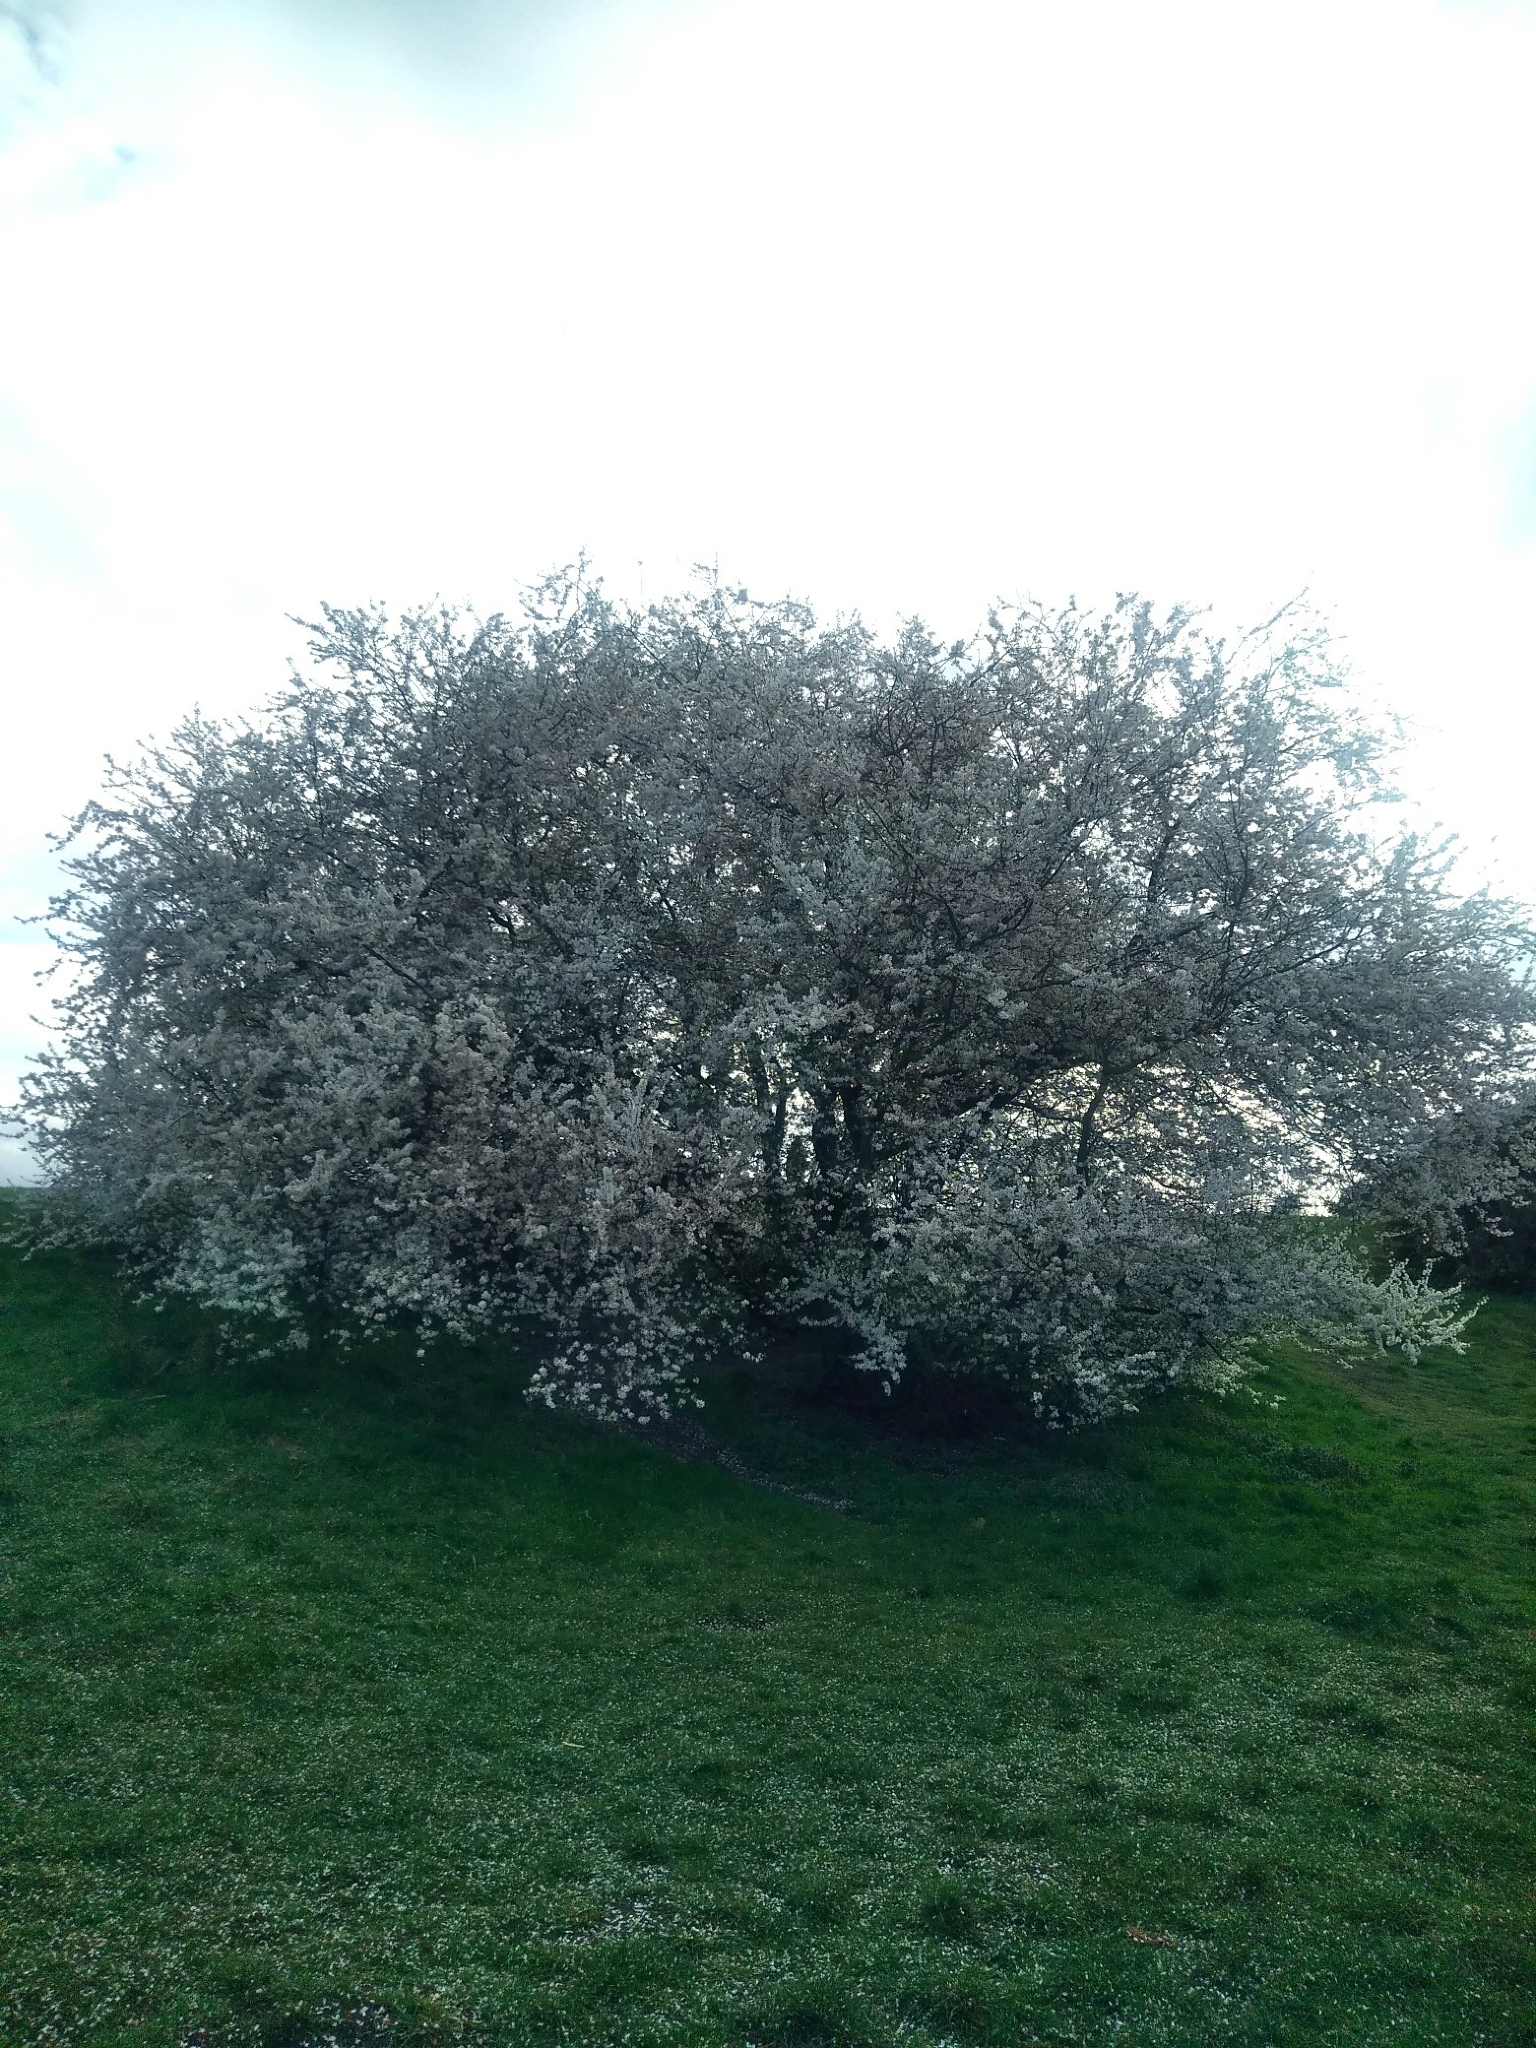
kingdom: Plantae
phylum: Tracheophyta
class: Magnoliopsida
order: Rosales
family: Rosaceae
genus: Prunus
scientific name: Prunus cerasifera
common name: Cherry plum
